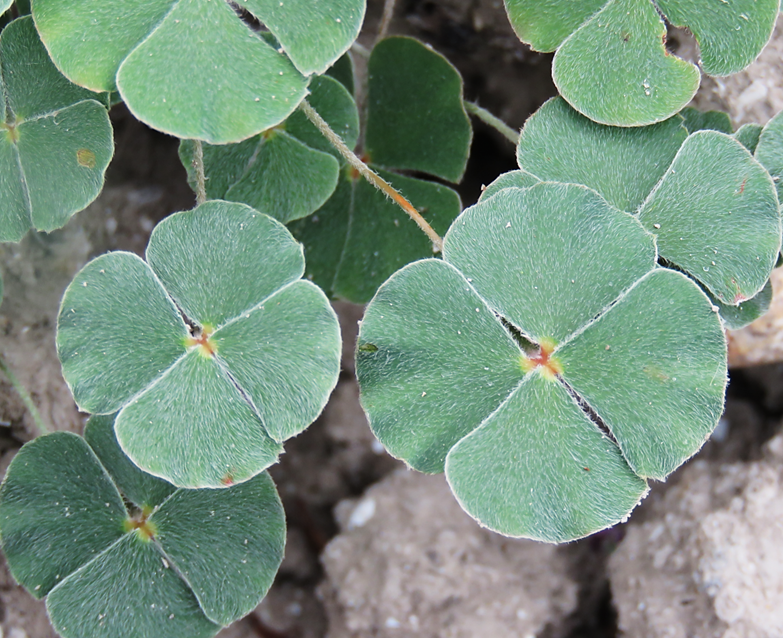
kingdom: Plantae
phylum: Tracheophyta
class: Polypodiopsida
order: Salviniales
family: Marsileaceae
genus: Marsilea
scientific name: Marsilea macropoda
